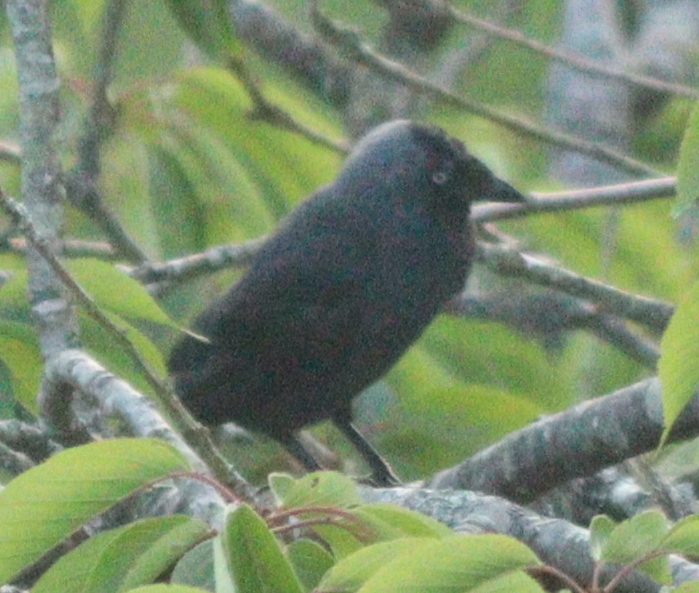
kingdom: Animalia
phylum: Chordata
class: Aves
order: Passeriformes
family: Corvidae
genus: Coloeus
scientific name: Coloeus monedula
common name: Western jackdaw
